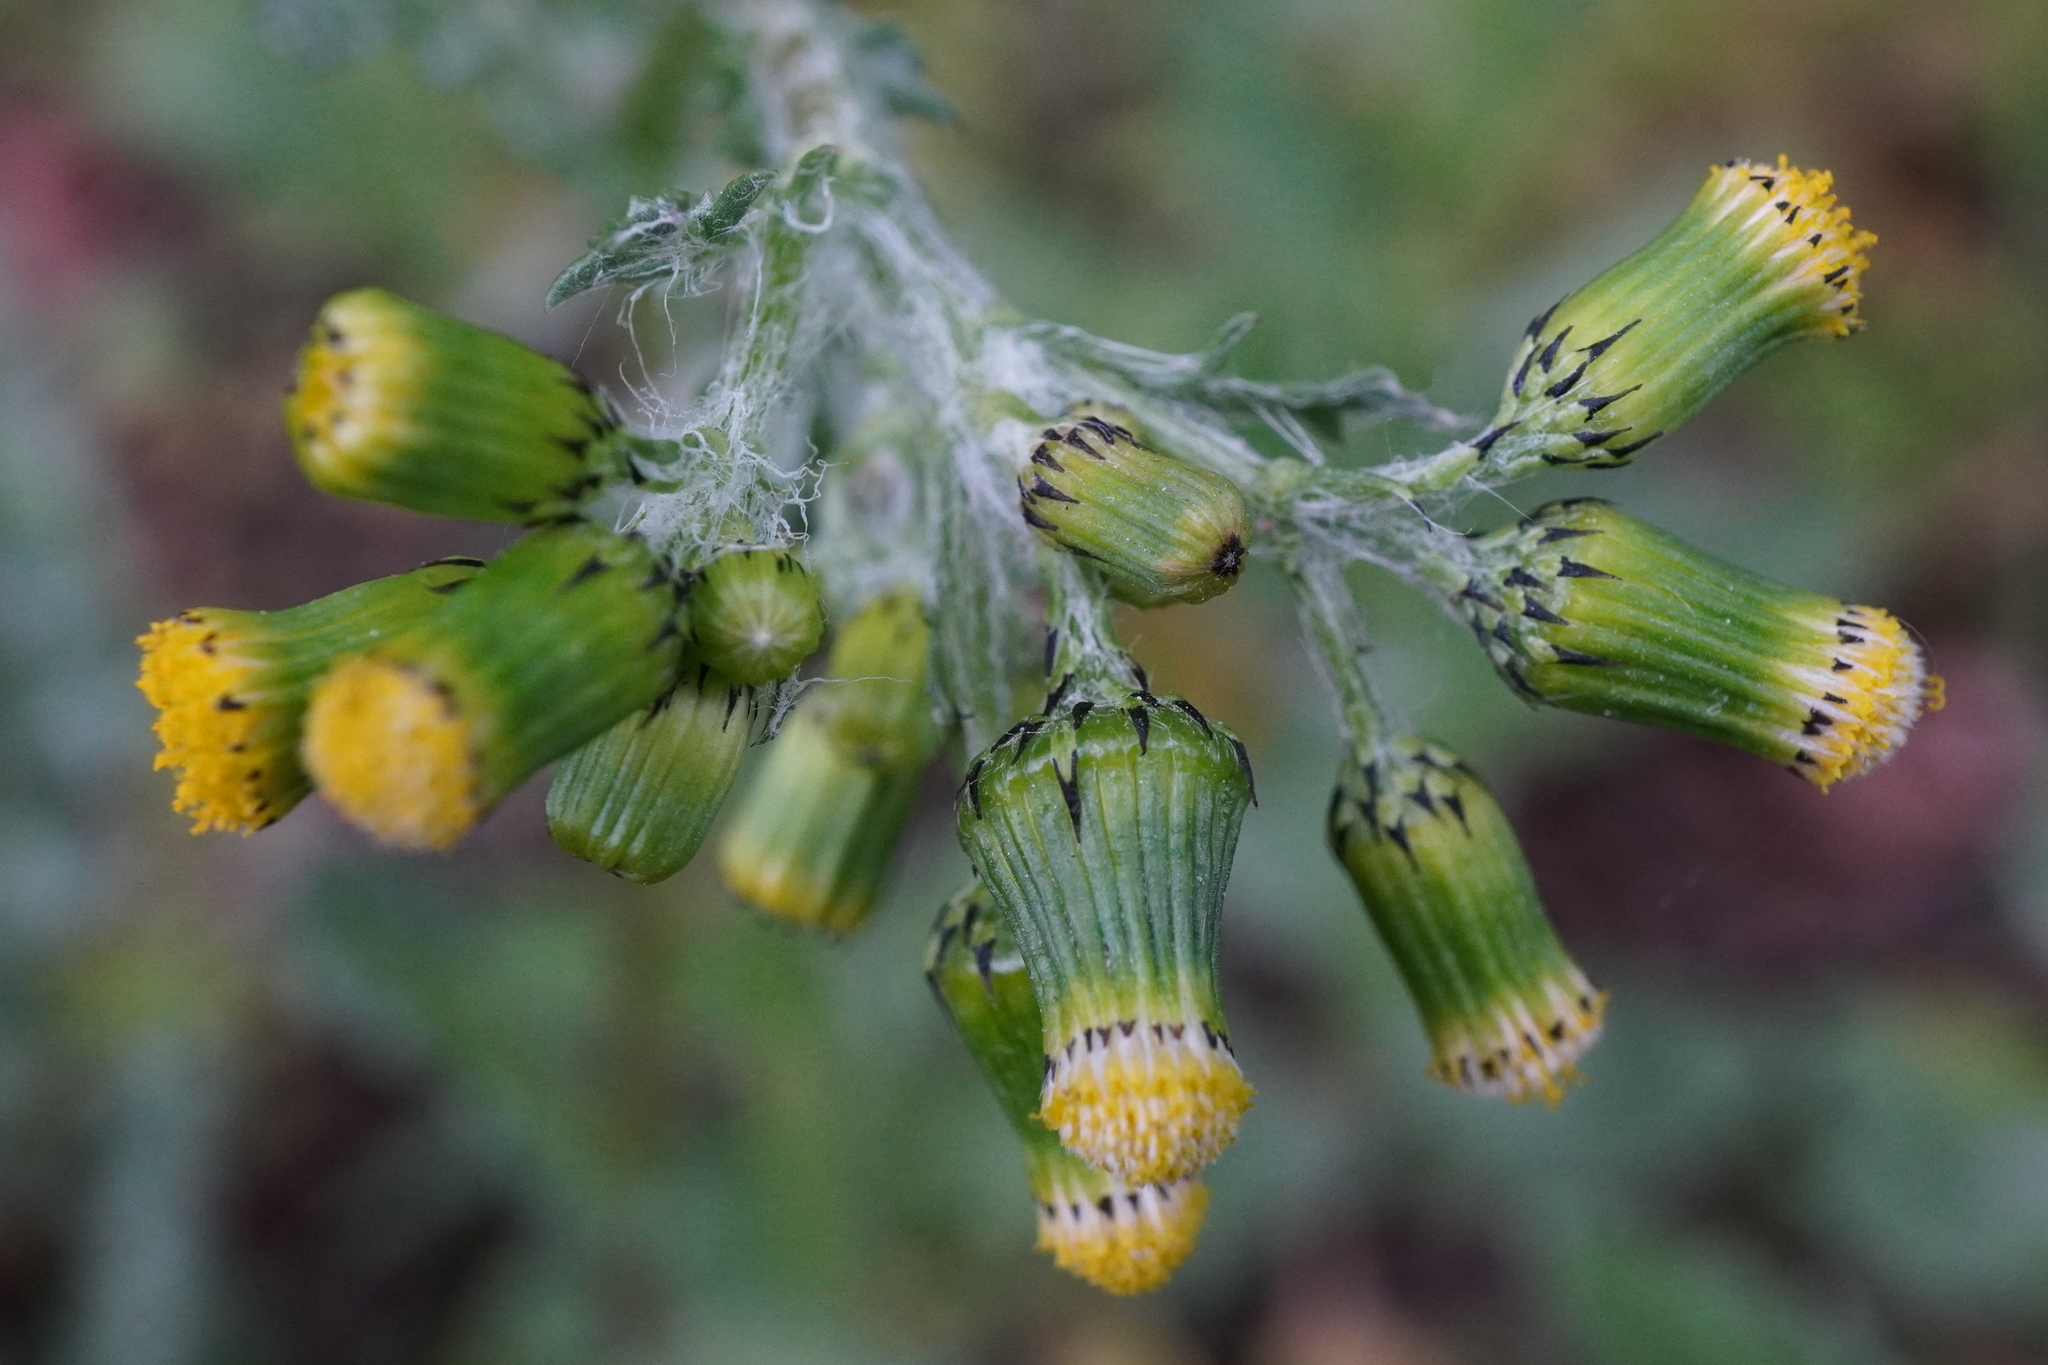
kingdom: Plantae
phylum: Tracheophyta
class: Magnoliopsida
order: Asterales
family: Asteraceae
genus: Senecio
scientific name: Senecio vulgaris
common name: Old-man-in-the-spring
